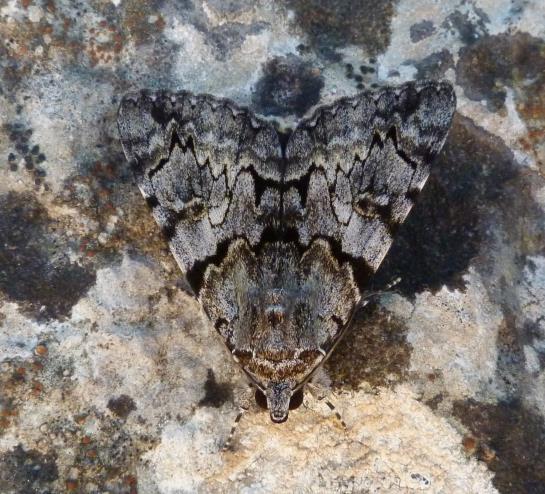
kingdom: Animalia
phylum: Arthropoda
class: Insecta
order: Lepidoptera
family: Erebidae
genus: Catocala
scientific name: Catocala conversa
